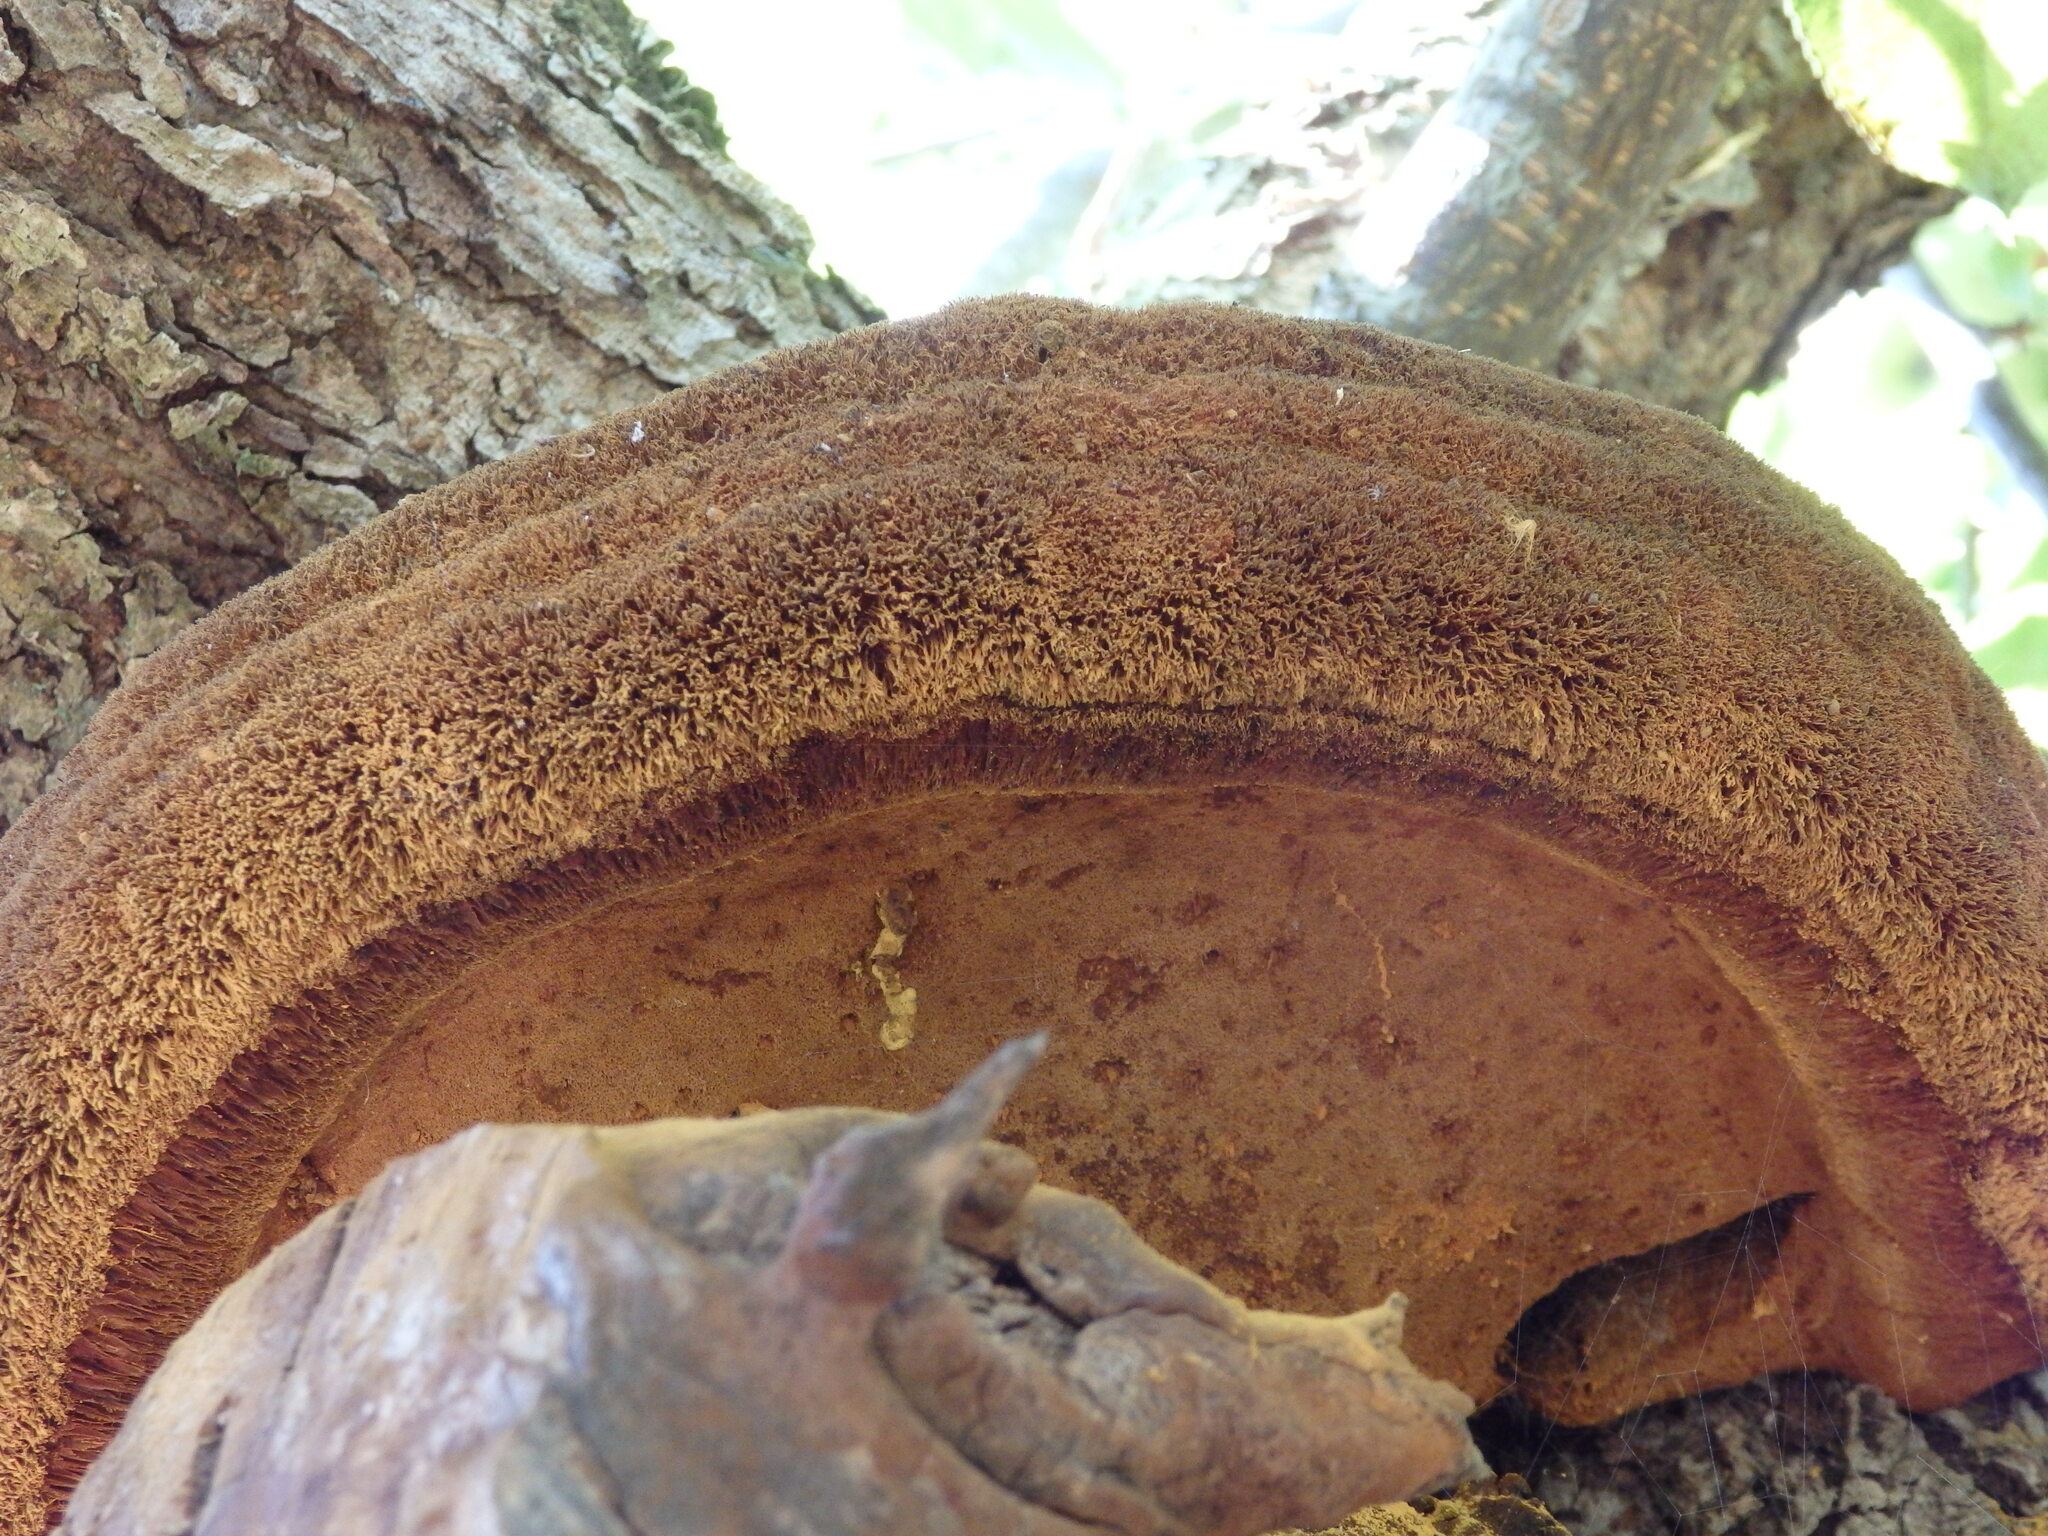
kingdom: Fungi
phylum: Basidiomycota
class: Agaricomycetes
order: Hymenochaetales
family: Hymenochaetaceae
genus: Inonotus
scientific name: Inonotus hispidus
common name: Shaggy bracket
